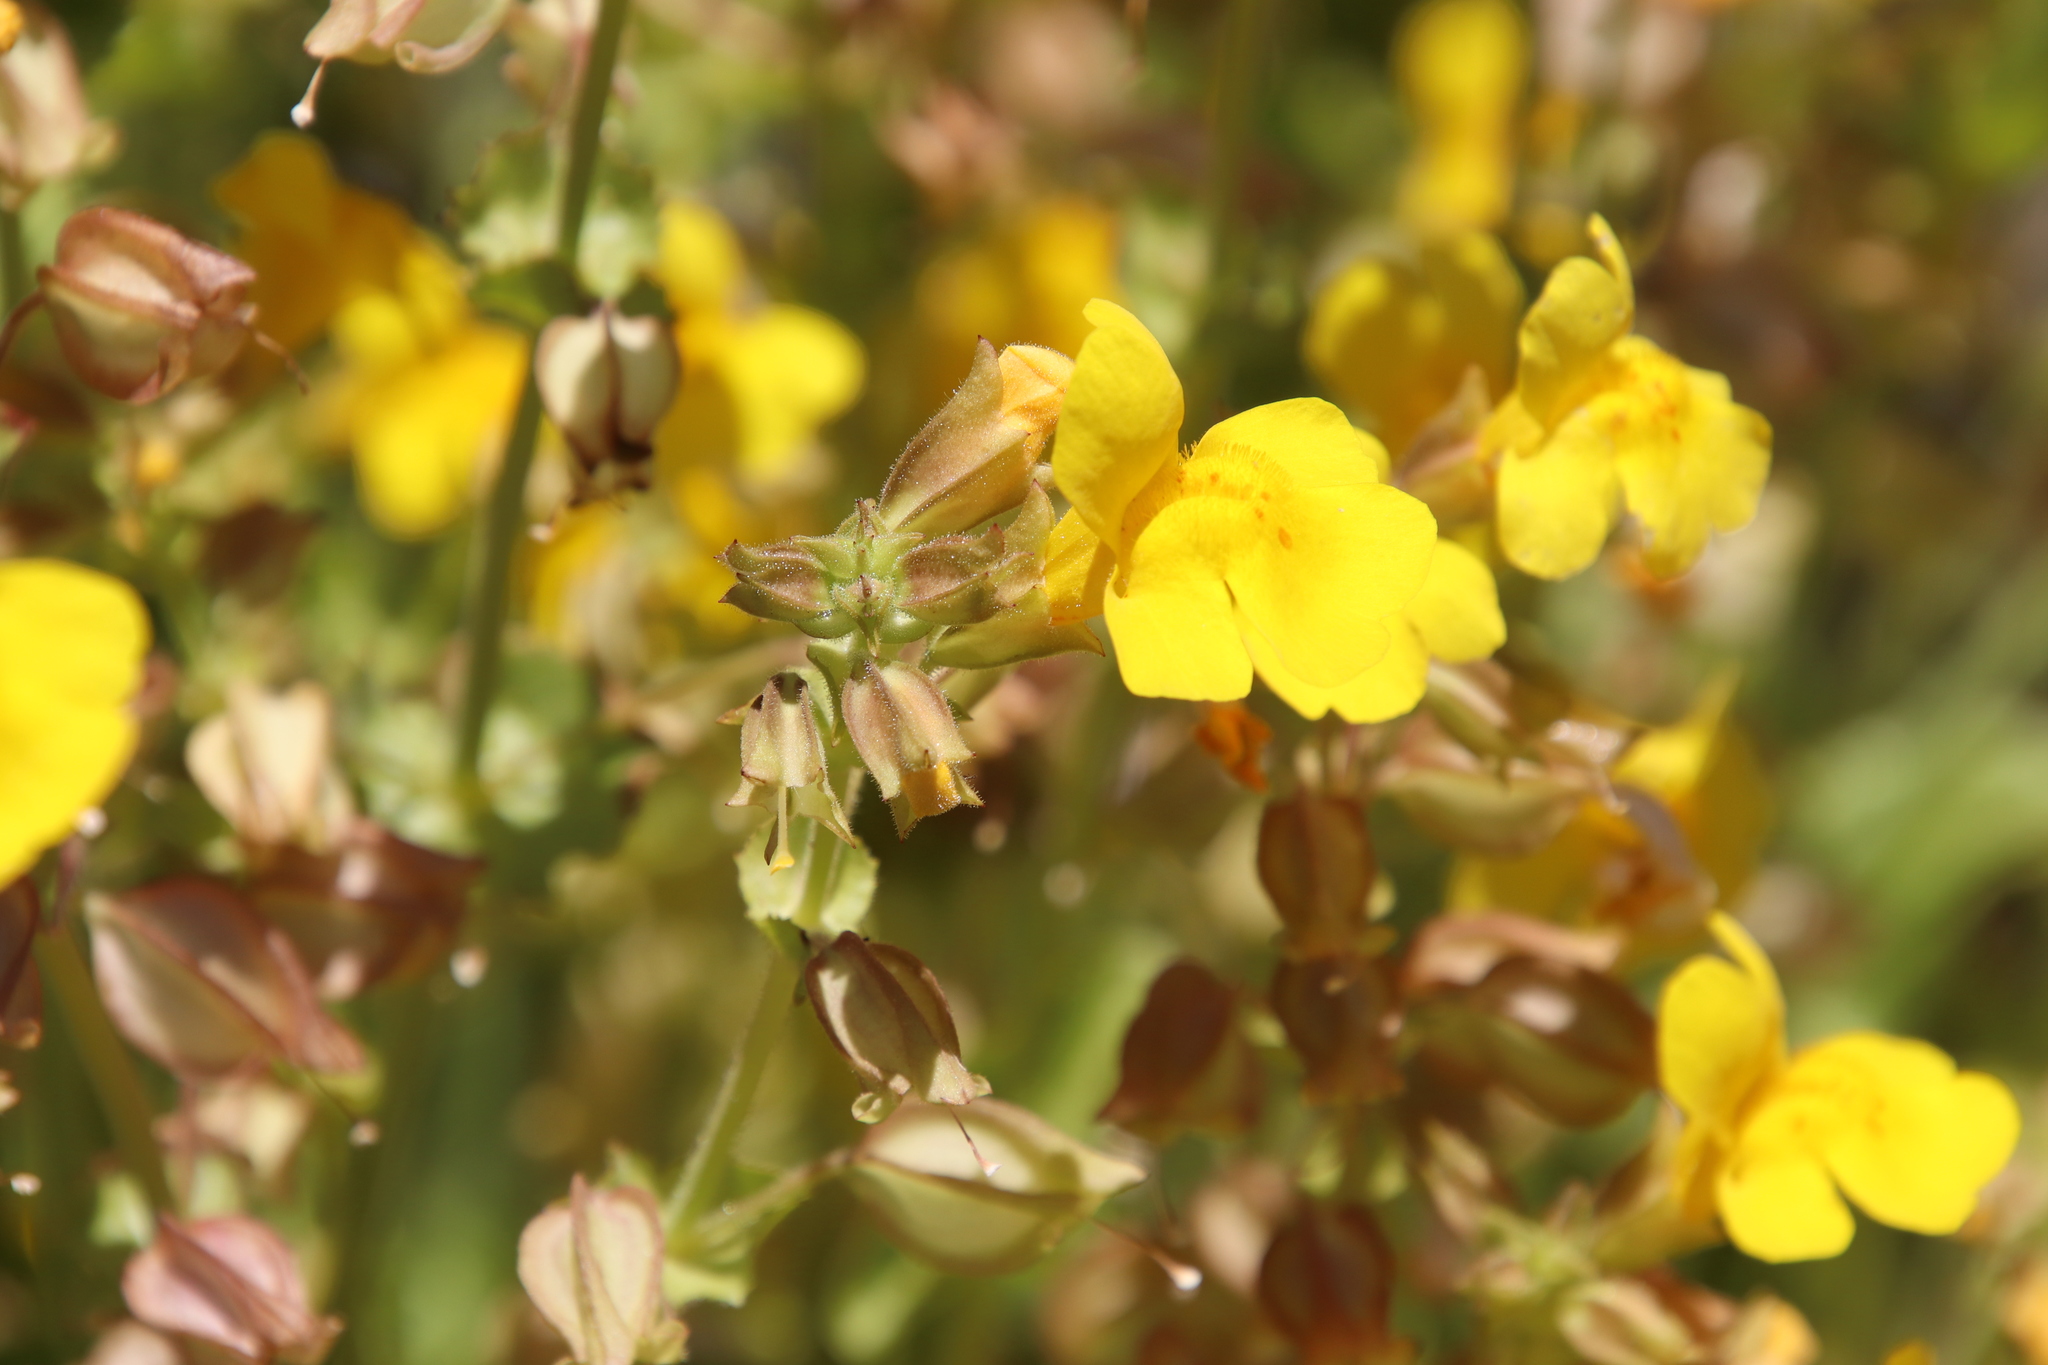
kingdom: Plantae
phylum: Tracheophyta
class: Magnoliopsida
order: Lamiales
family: Phrymaceae
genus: Erythranthe
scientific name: Erythranthe guttata
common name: Monkeyflower
